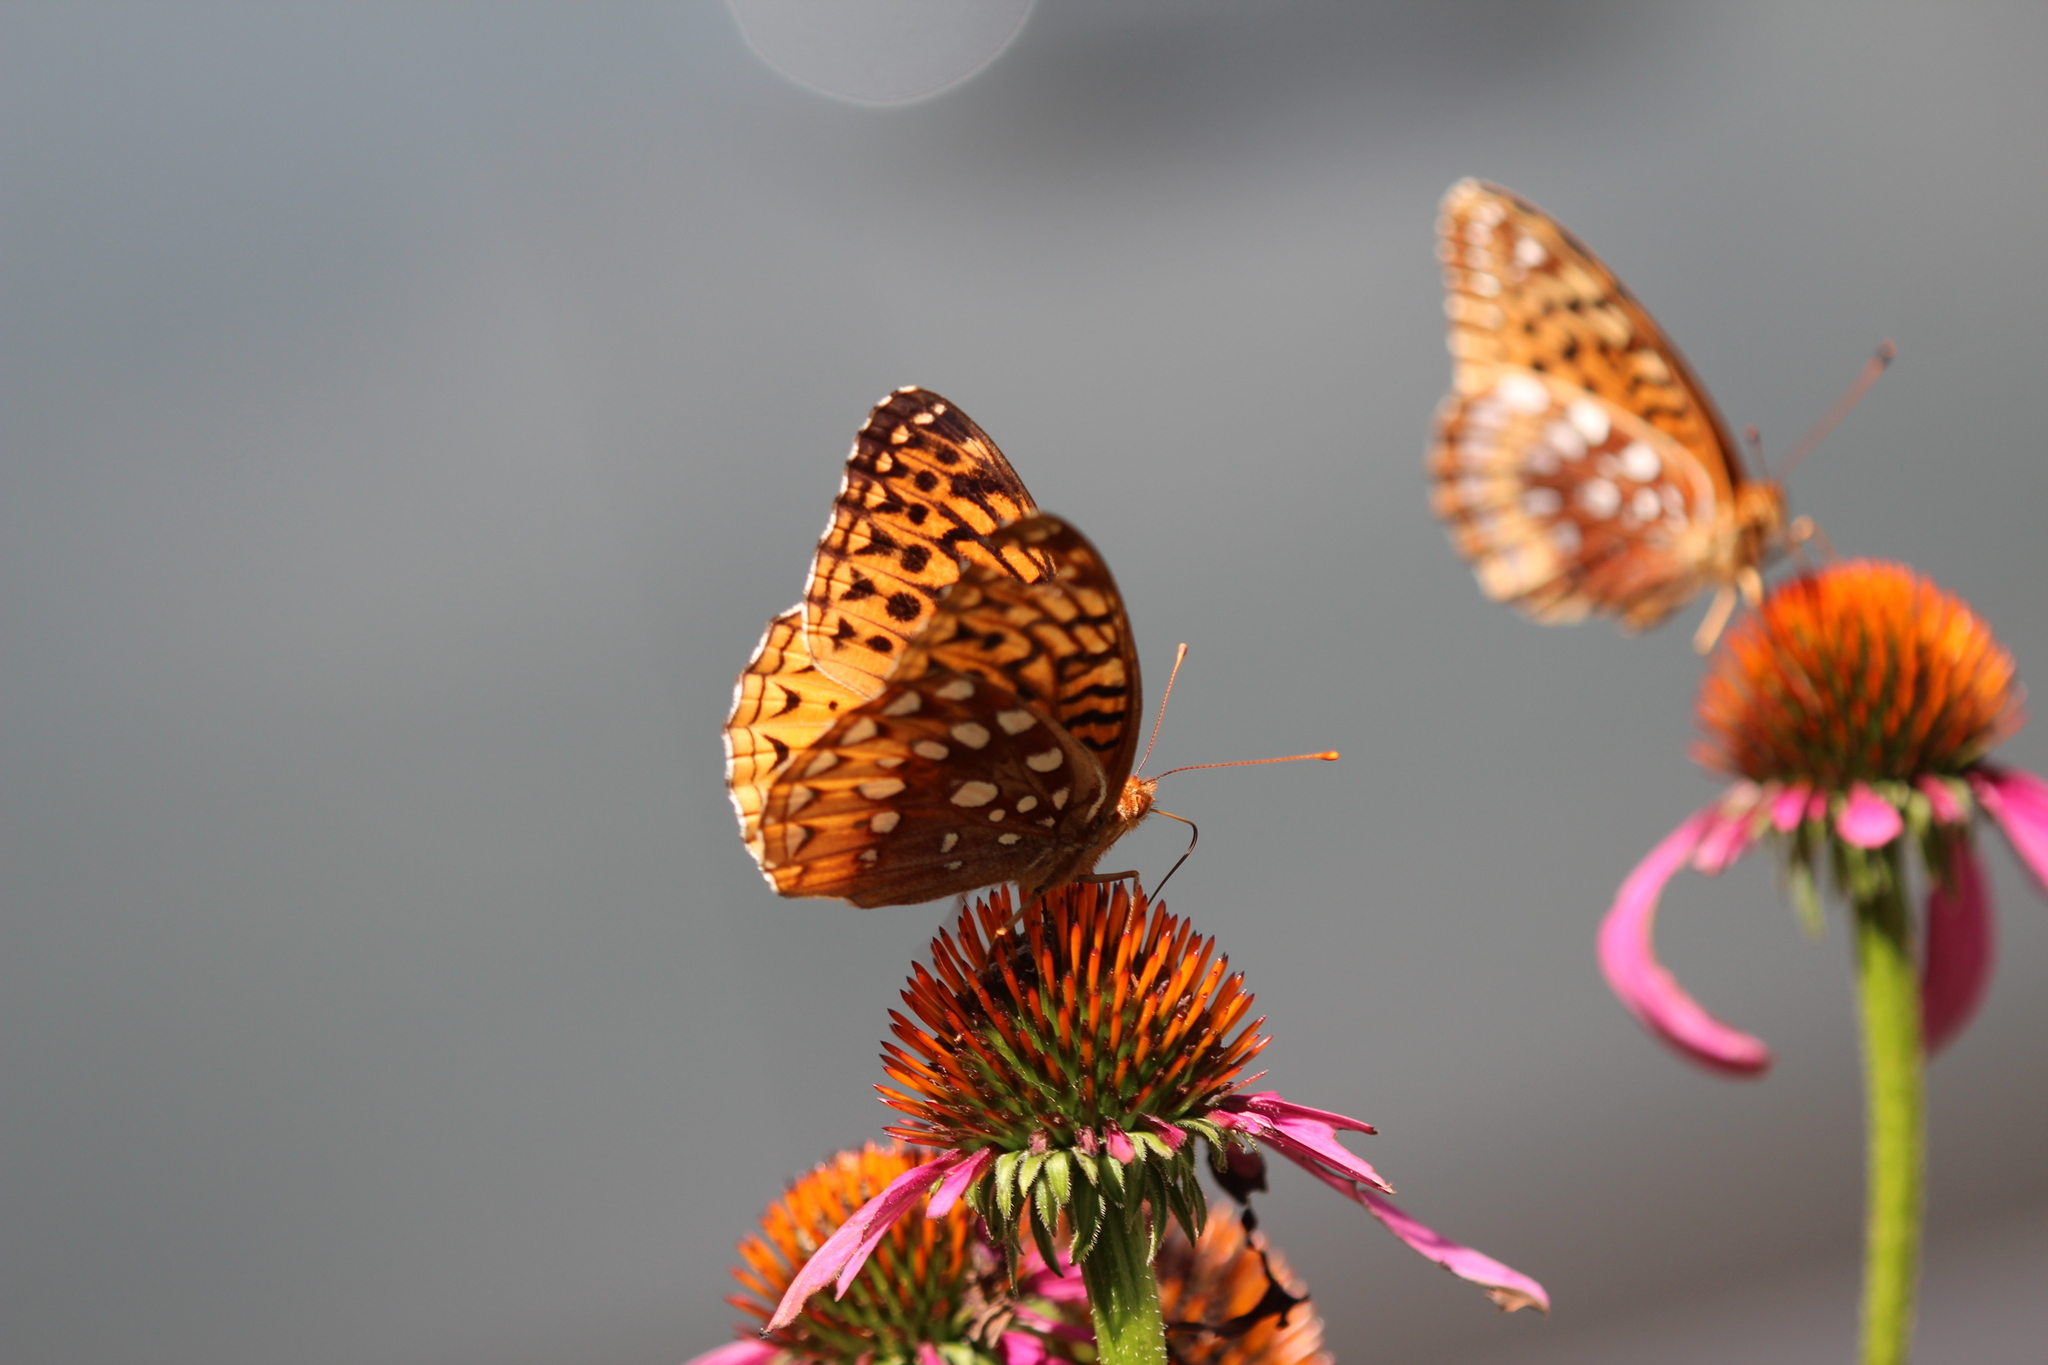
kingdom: Animalia
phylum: Arthropoda
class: Insecta
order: Lepidoptera
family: Nymphalidae
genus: Speyeria
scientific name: Speyeria cybele
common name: Great spangled fritillary
